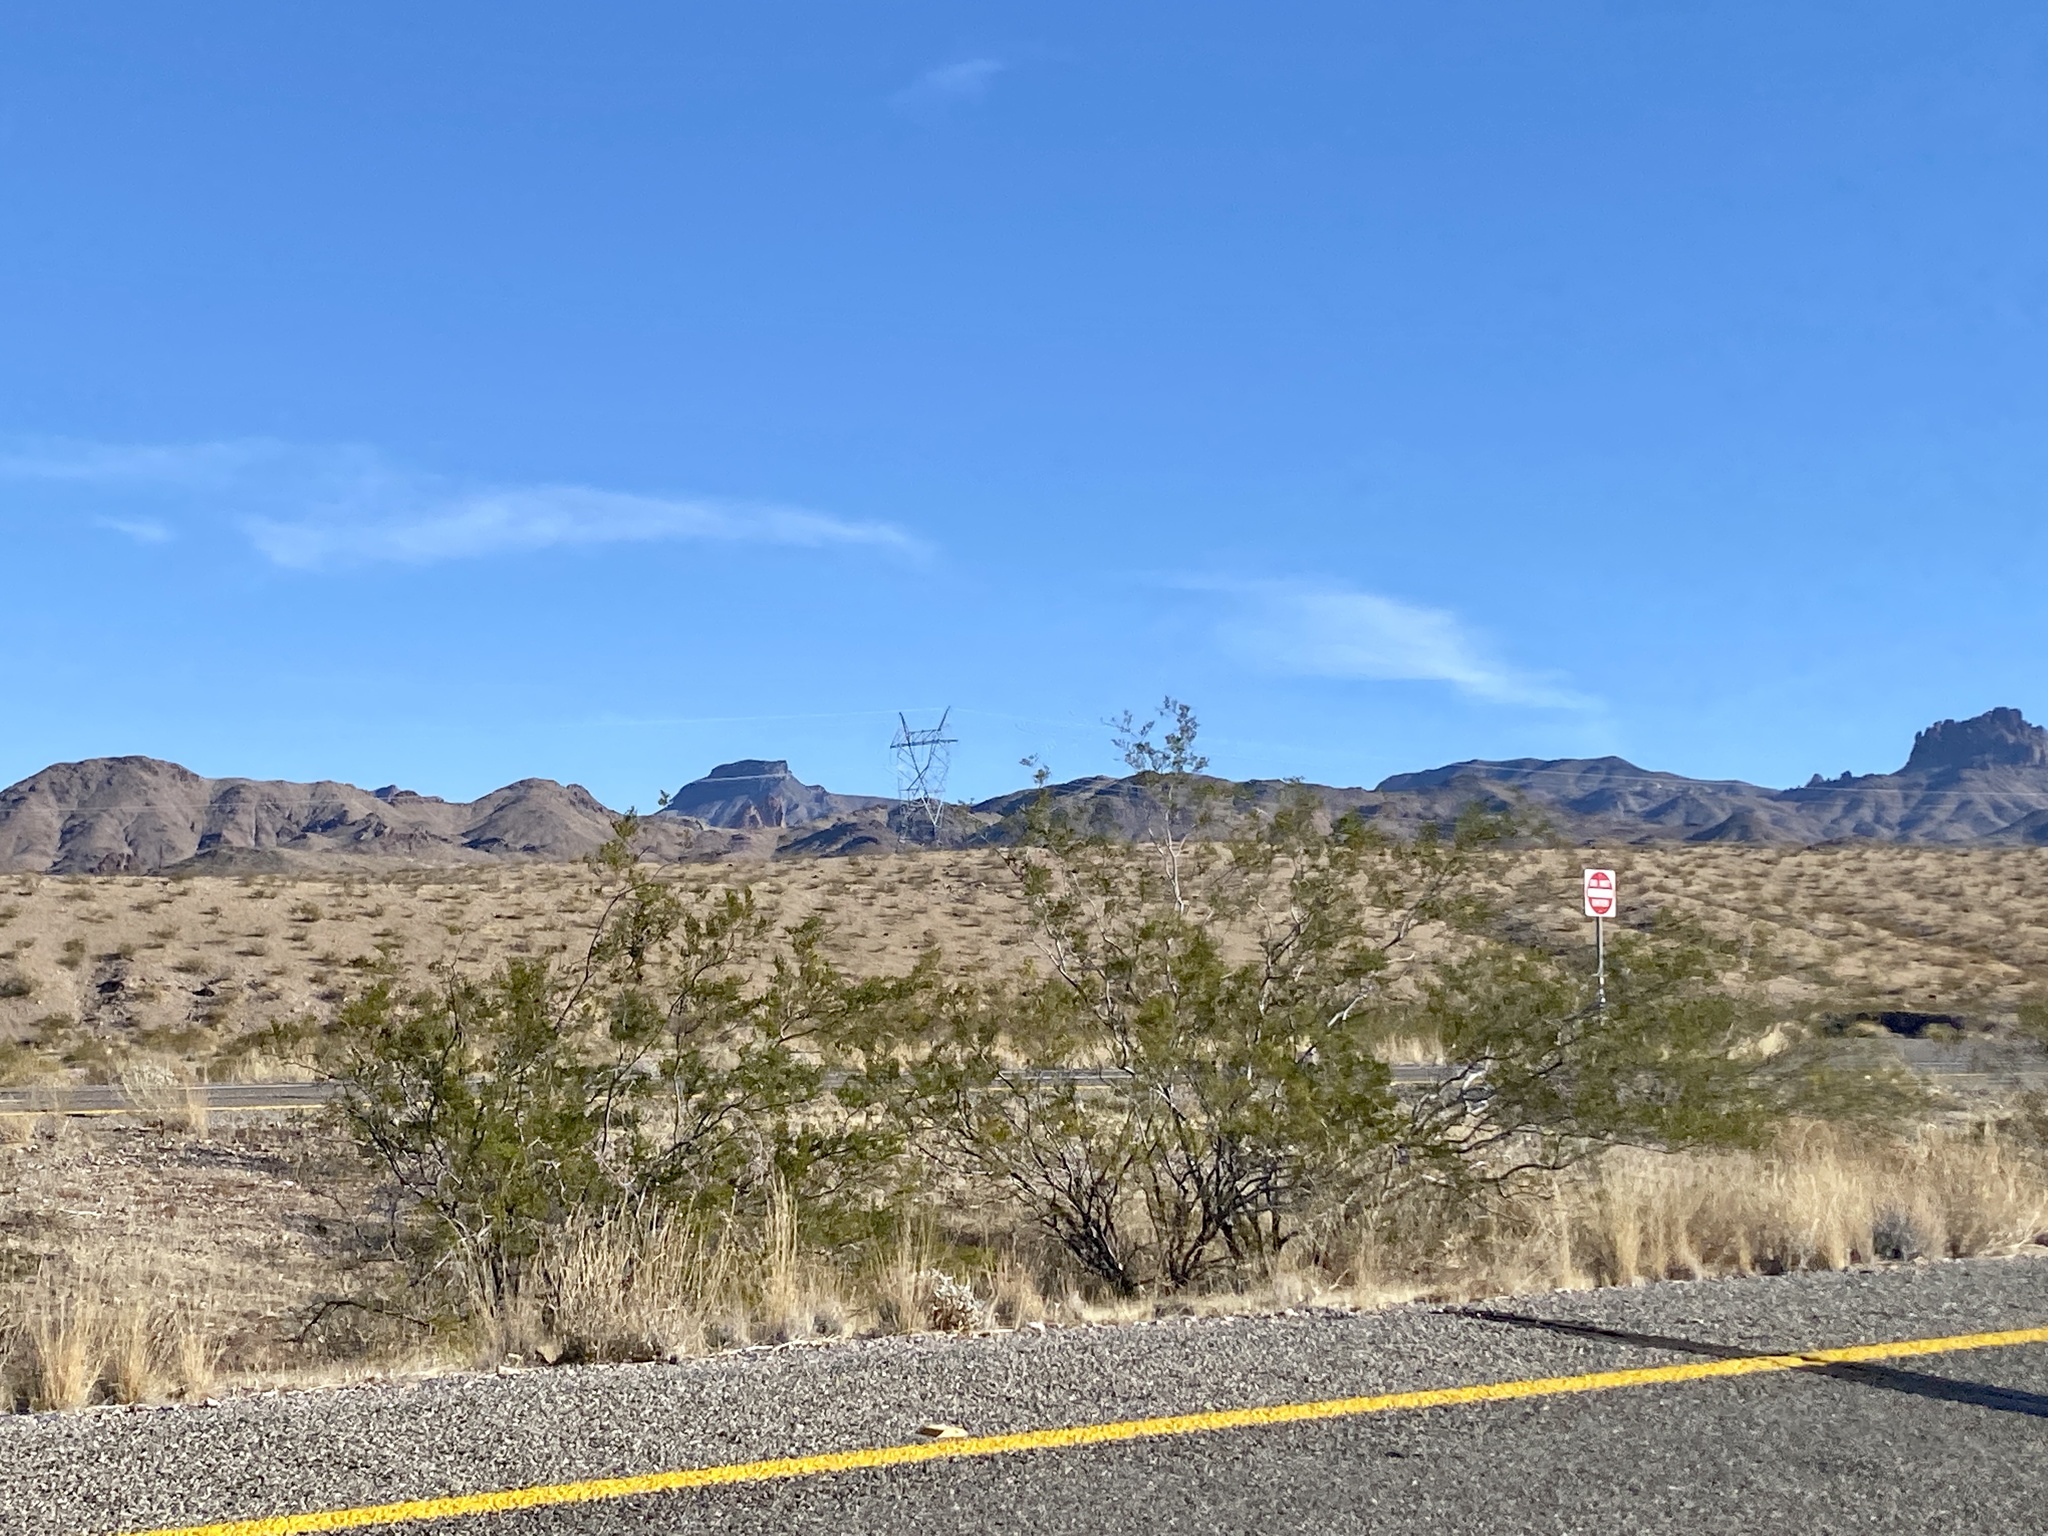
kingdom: Plantae
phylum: Tracheophyta
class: Magnoliopsida
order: Zygophyllales
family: Zygophyllaceae
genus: Larrea
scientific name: Larrea tridentata
